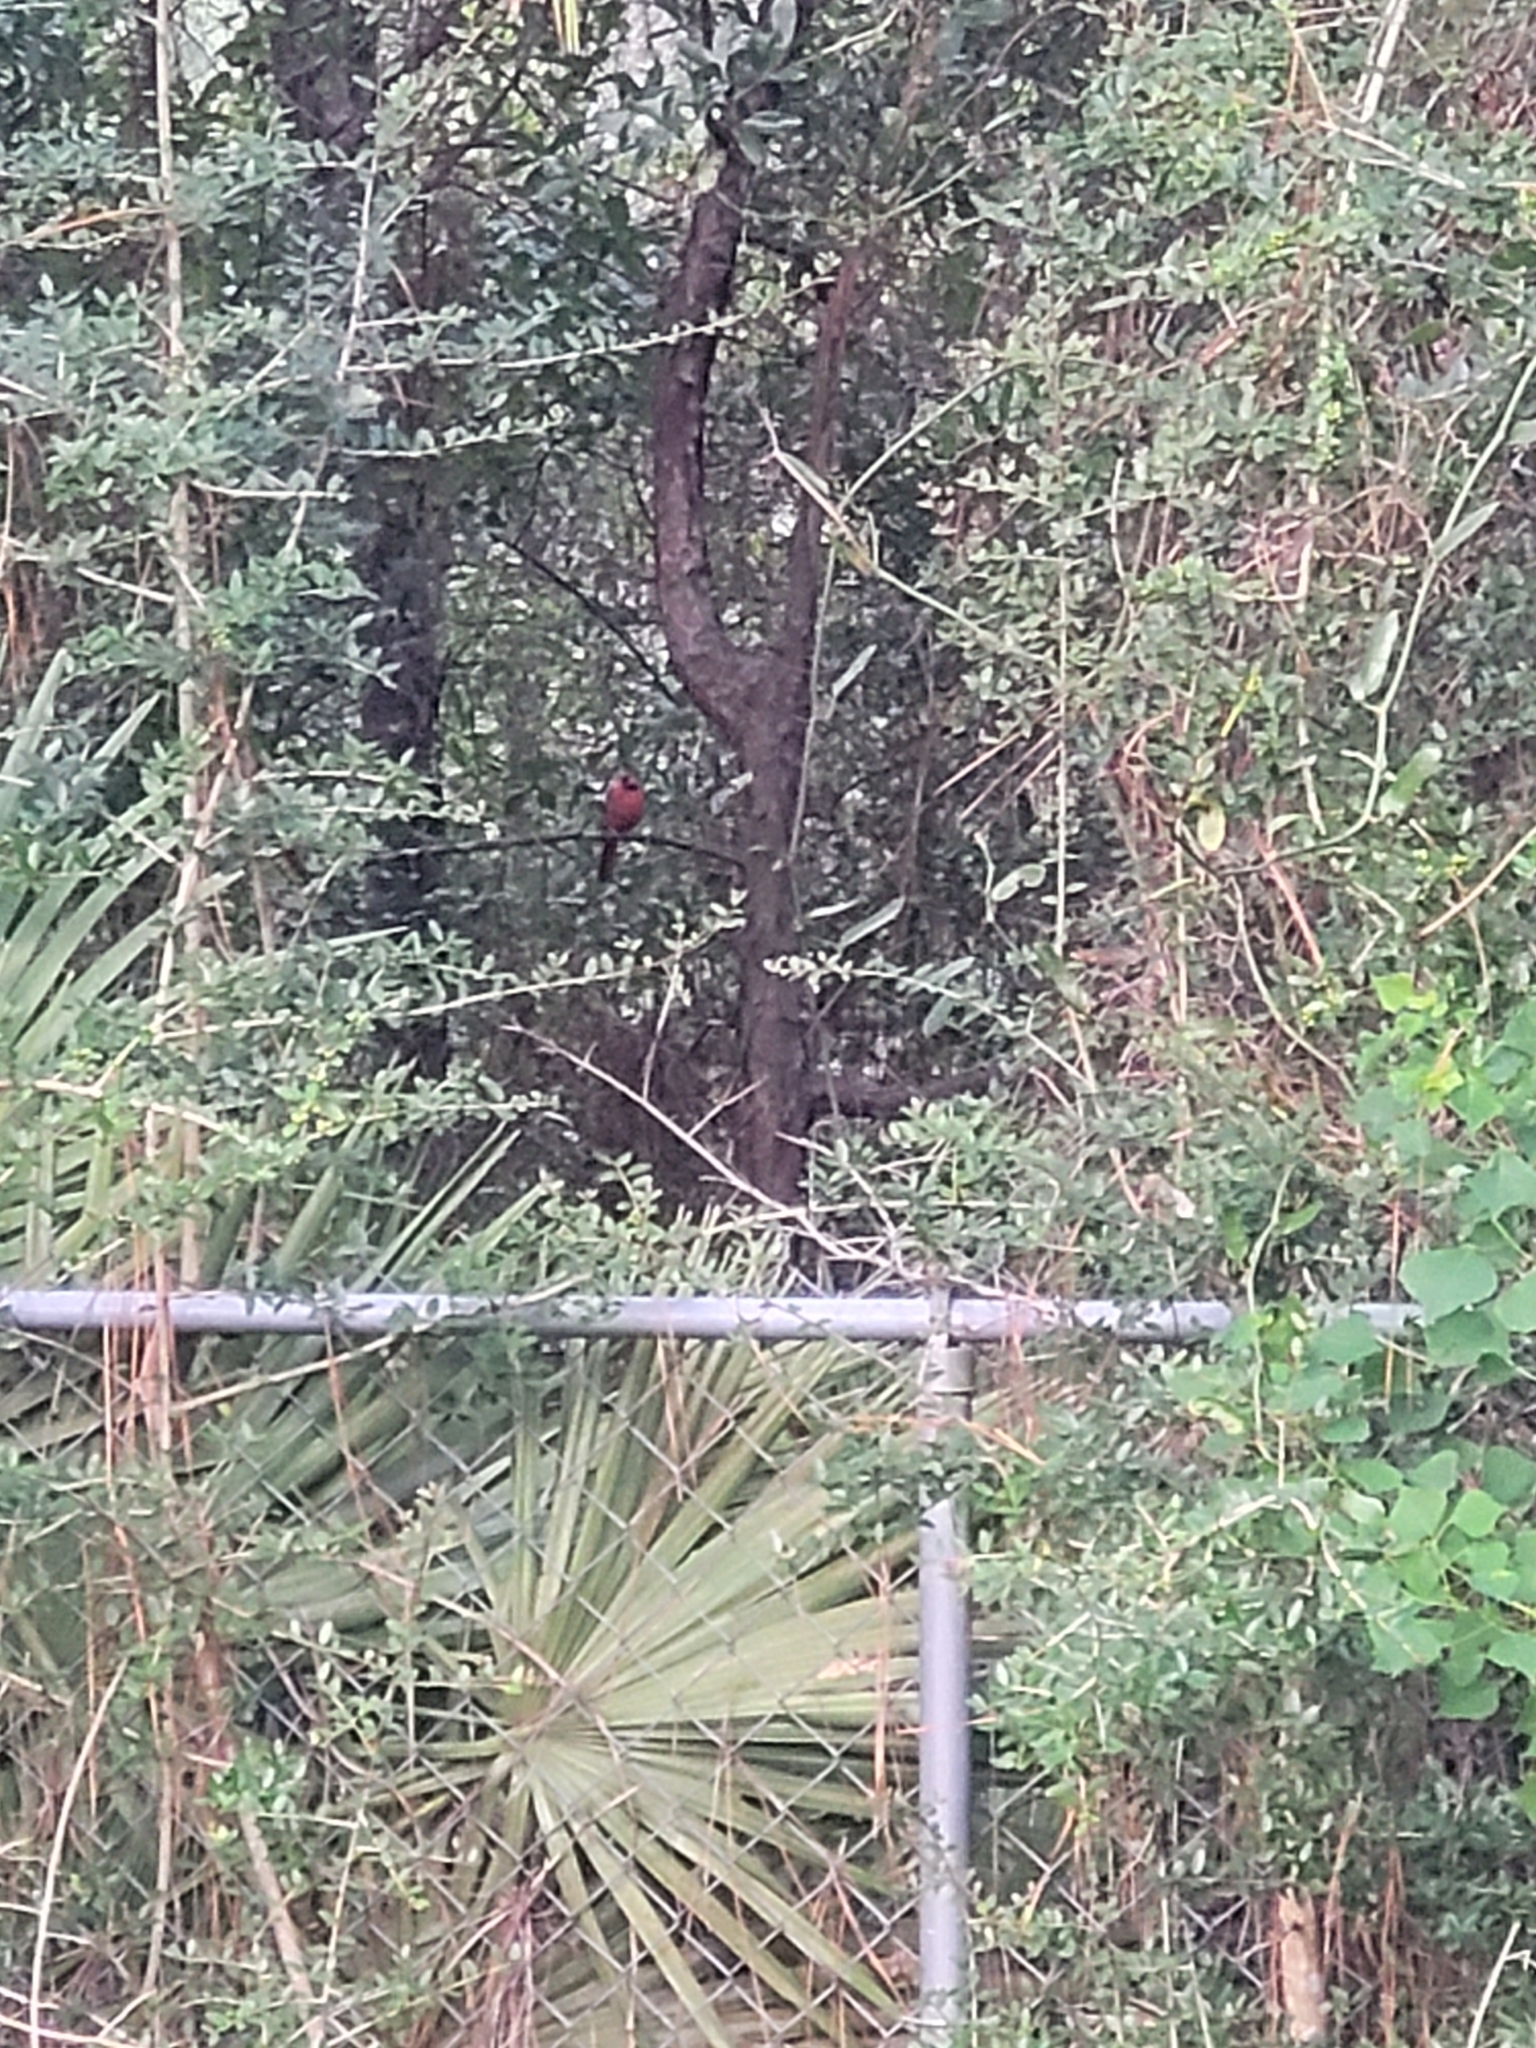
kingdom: Animalia
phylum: Chordata
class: Aves
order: Passeriformes
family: Cardinalidae
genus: Cardinalis
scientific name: Cardinalis cardinalis
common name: Northern cardinal
